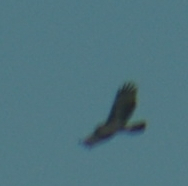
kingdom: Animalia
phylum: Chordata
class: Aves
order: Accipitriformes
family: Accipitridae
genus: Buteo
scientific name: Buteo jamaicensis
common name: Red-tailed hawk
